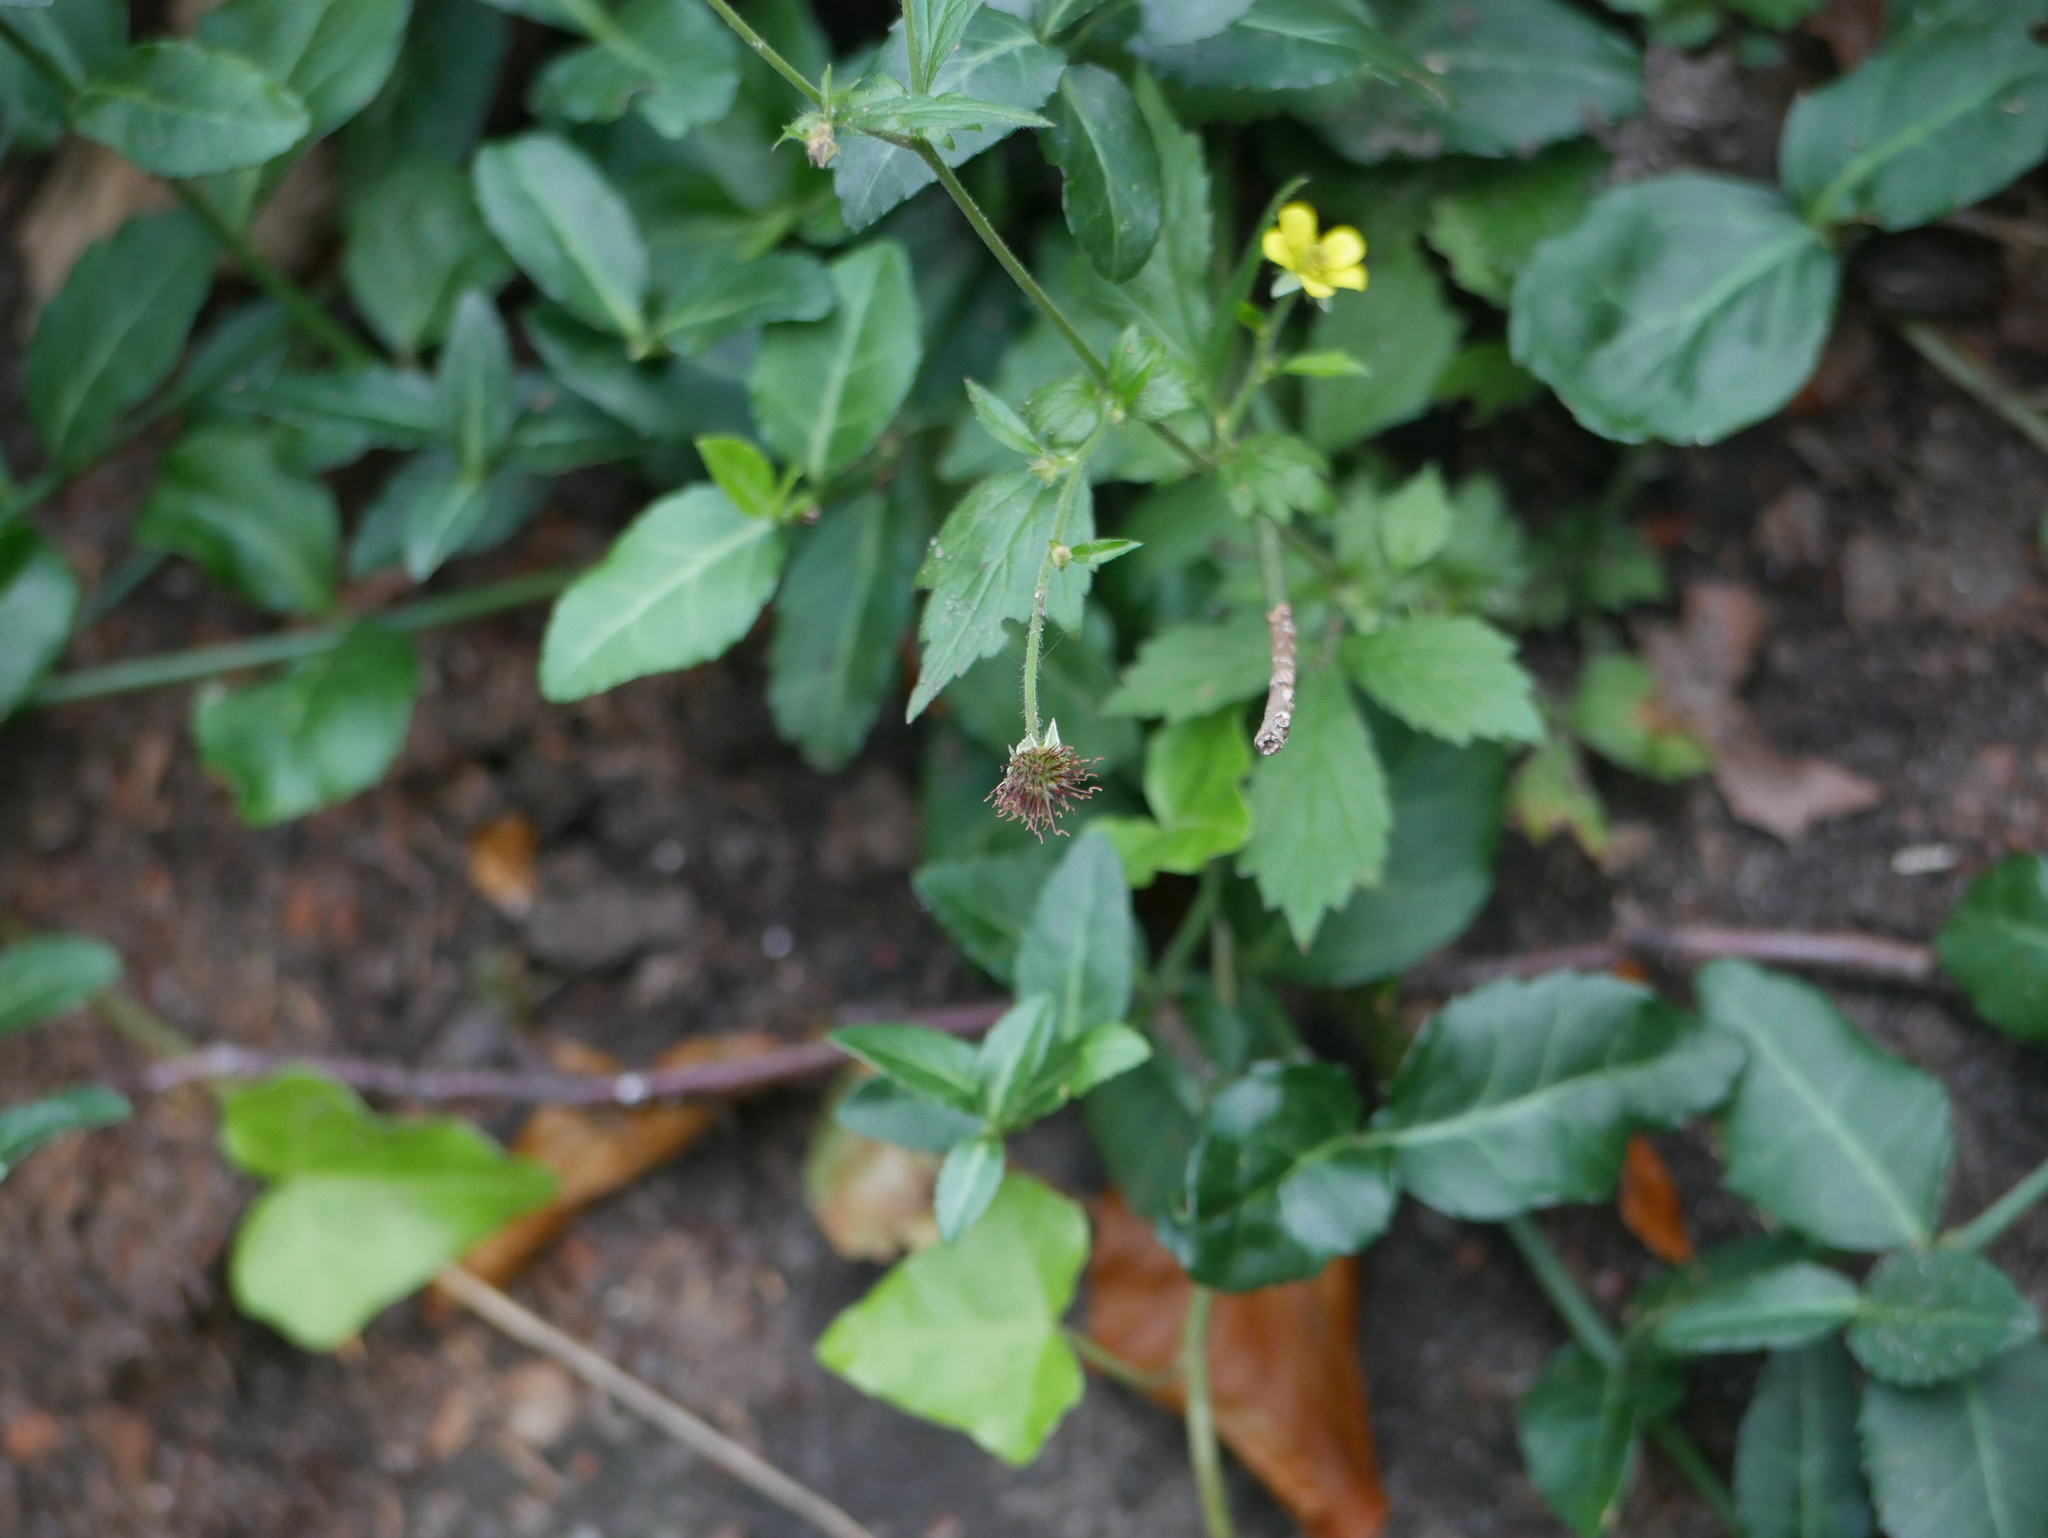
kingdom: Plantae
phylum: Tracheophyta
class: Magnoliopsida
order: Rosales
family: Rosaceae
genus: Geum
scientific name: Geum urbanum
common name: Wood avens
